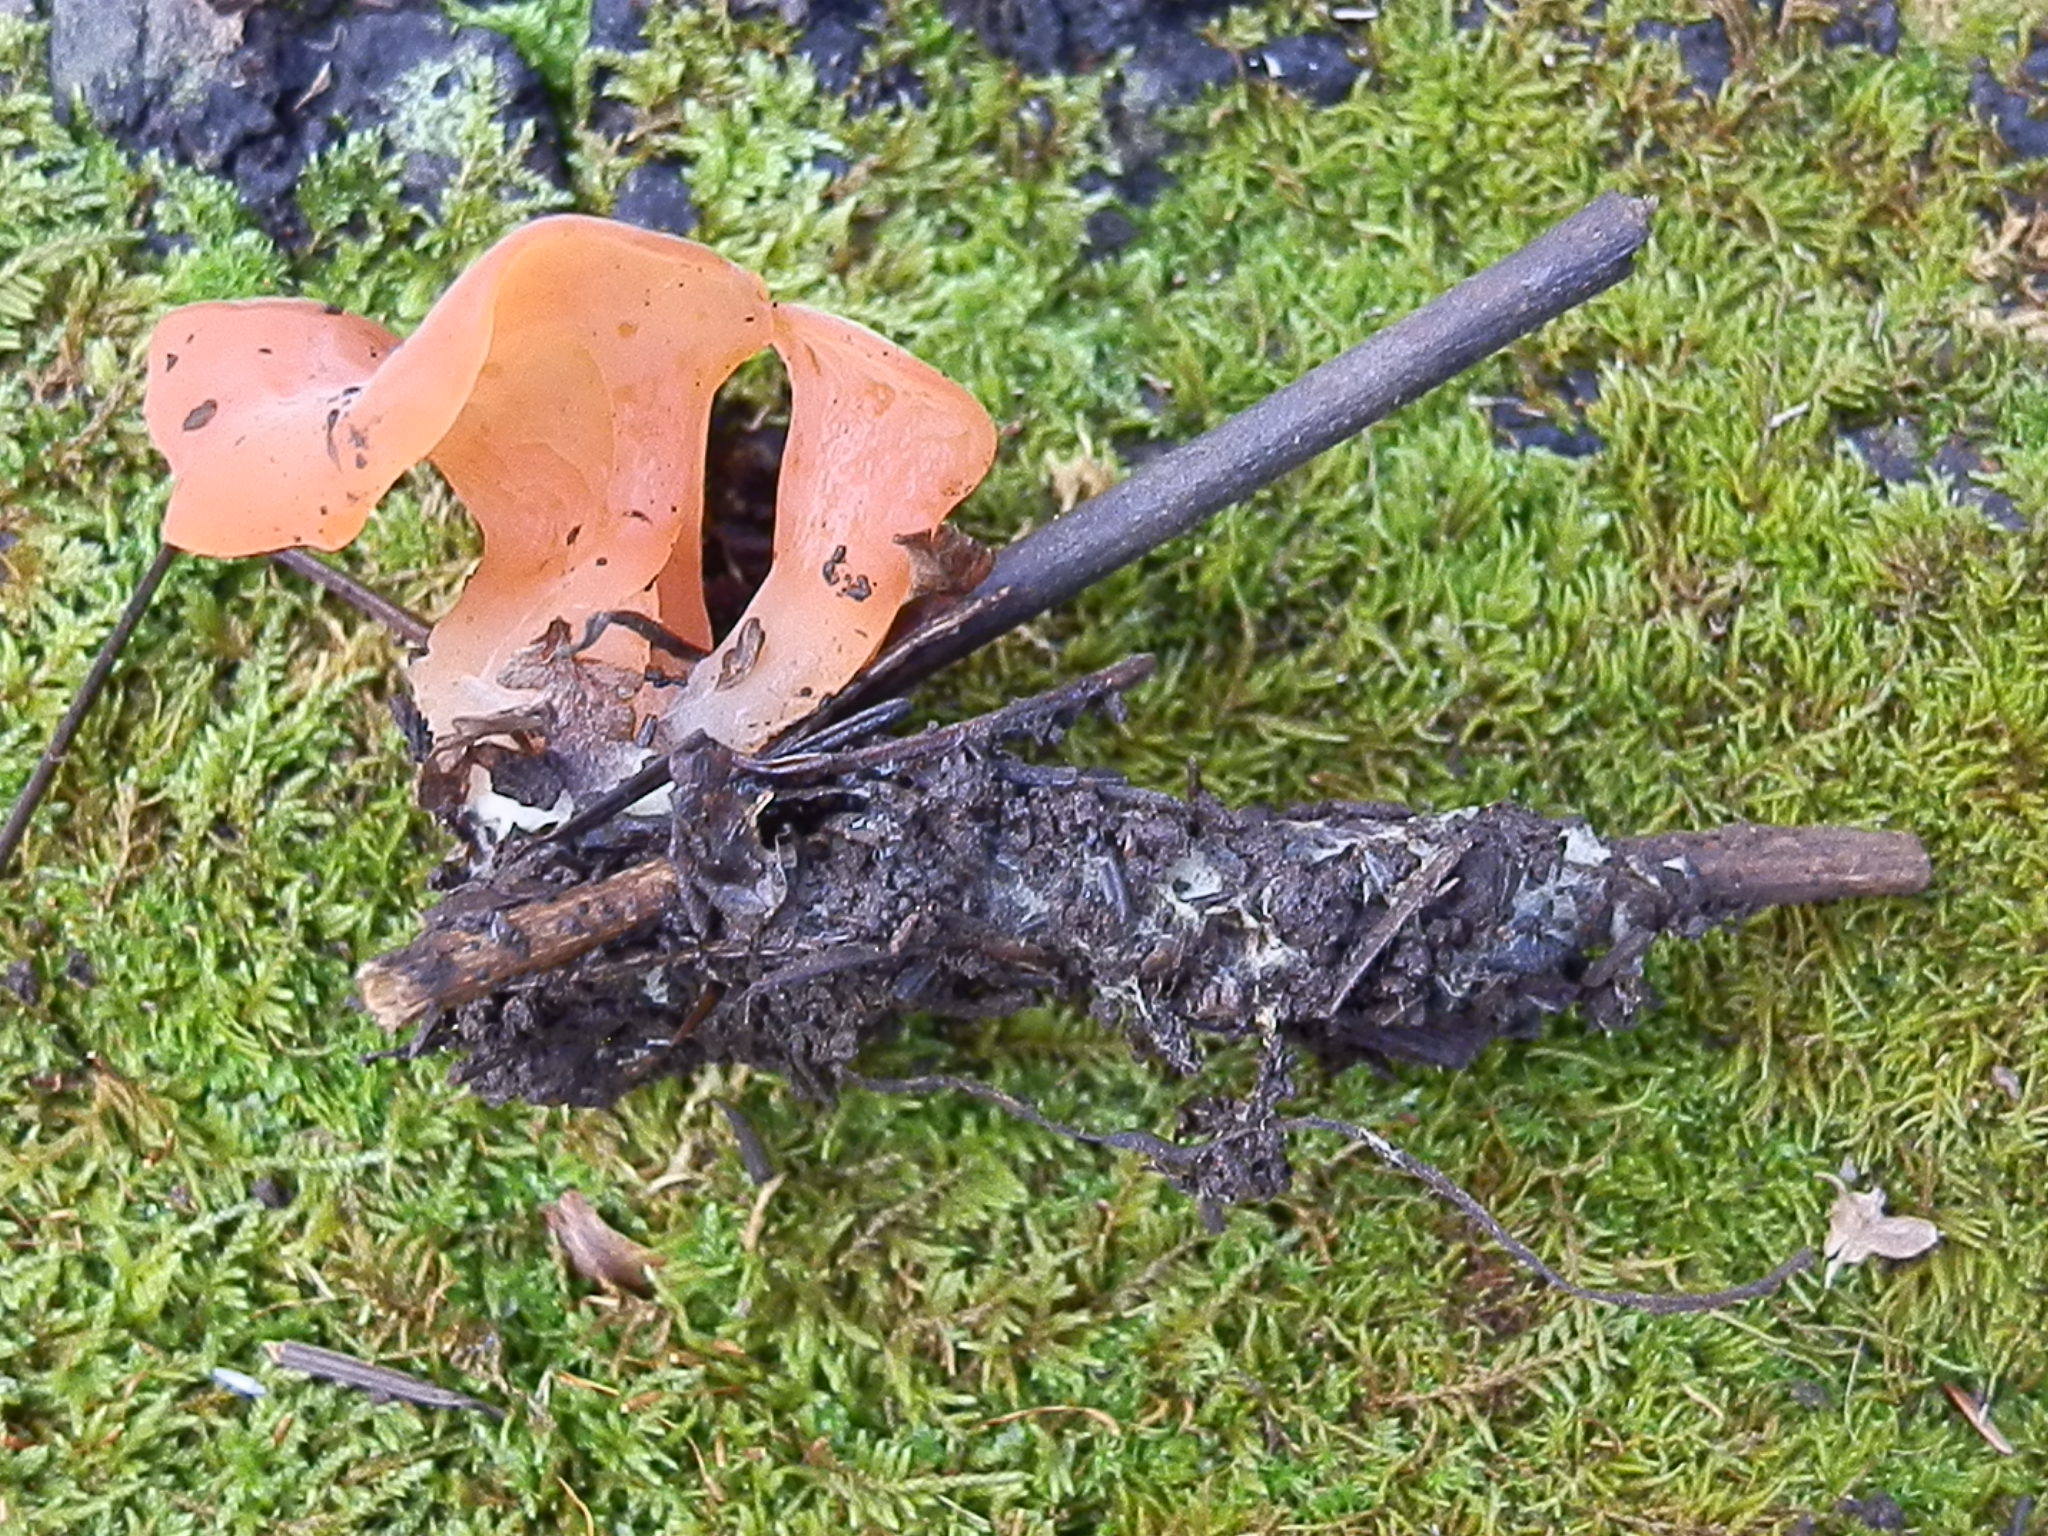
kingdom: Fungi
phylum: Basidiomycota
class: Agaricomycetes
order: Auriculariales
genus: Guepinia
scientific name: Guepinia helvelloides
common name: Salmon salad
